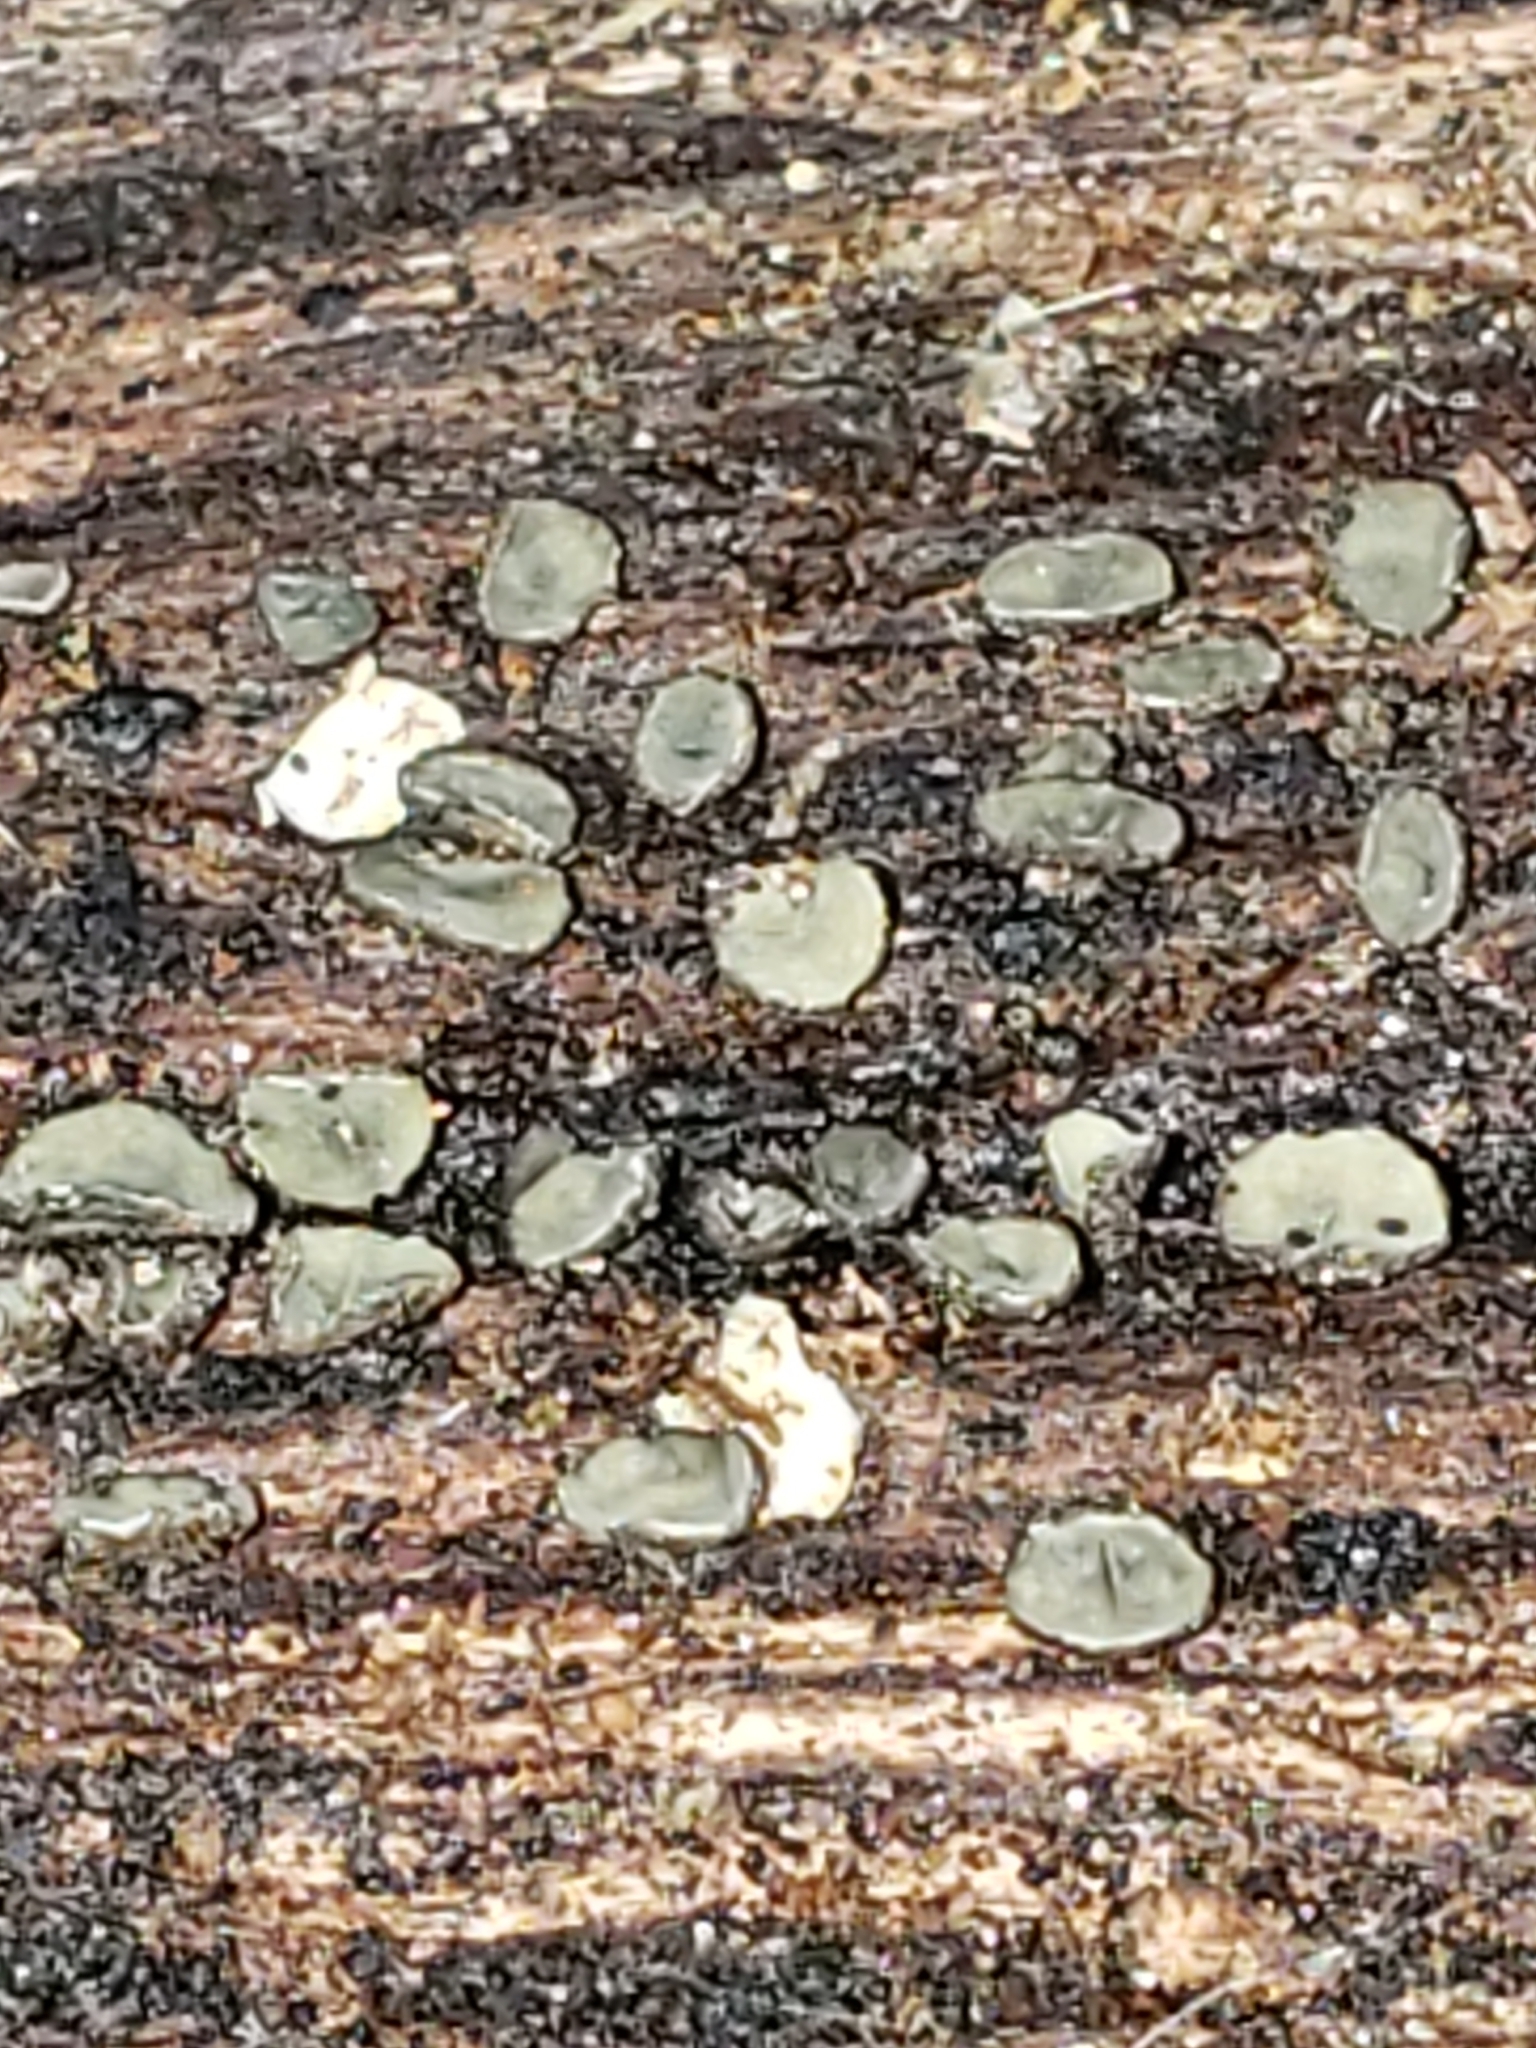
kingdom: Fungi
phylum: Ascomycota
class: Leotiomycetes
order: Helotiales
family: Chlorospleniaceae
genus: Chlorosplenium
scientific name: Chlorosplenium chlora
